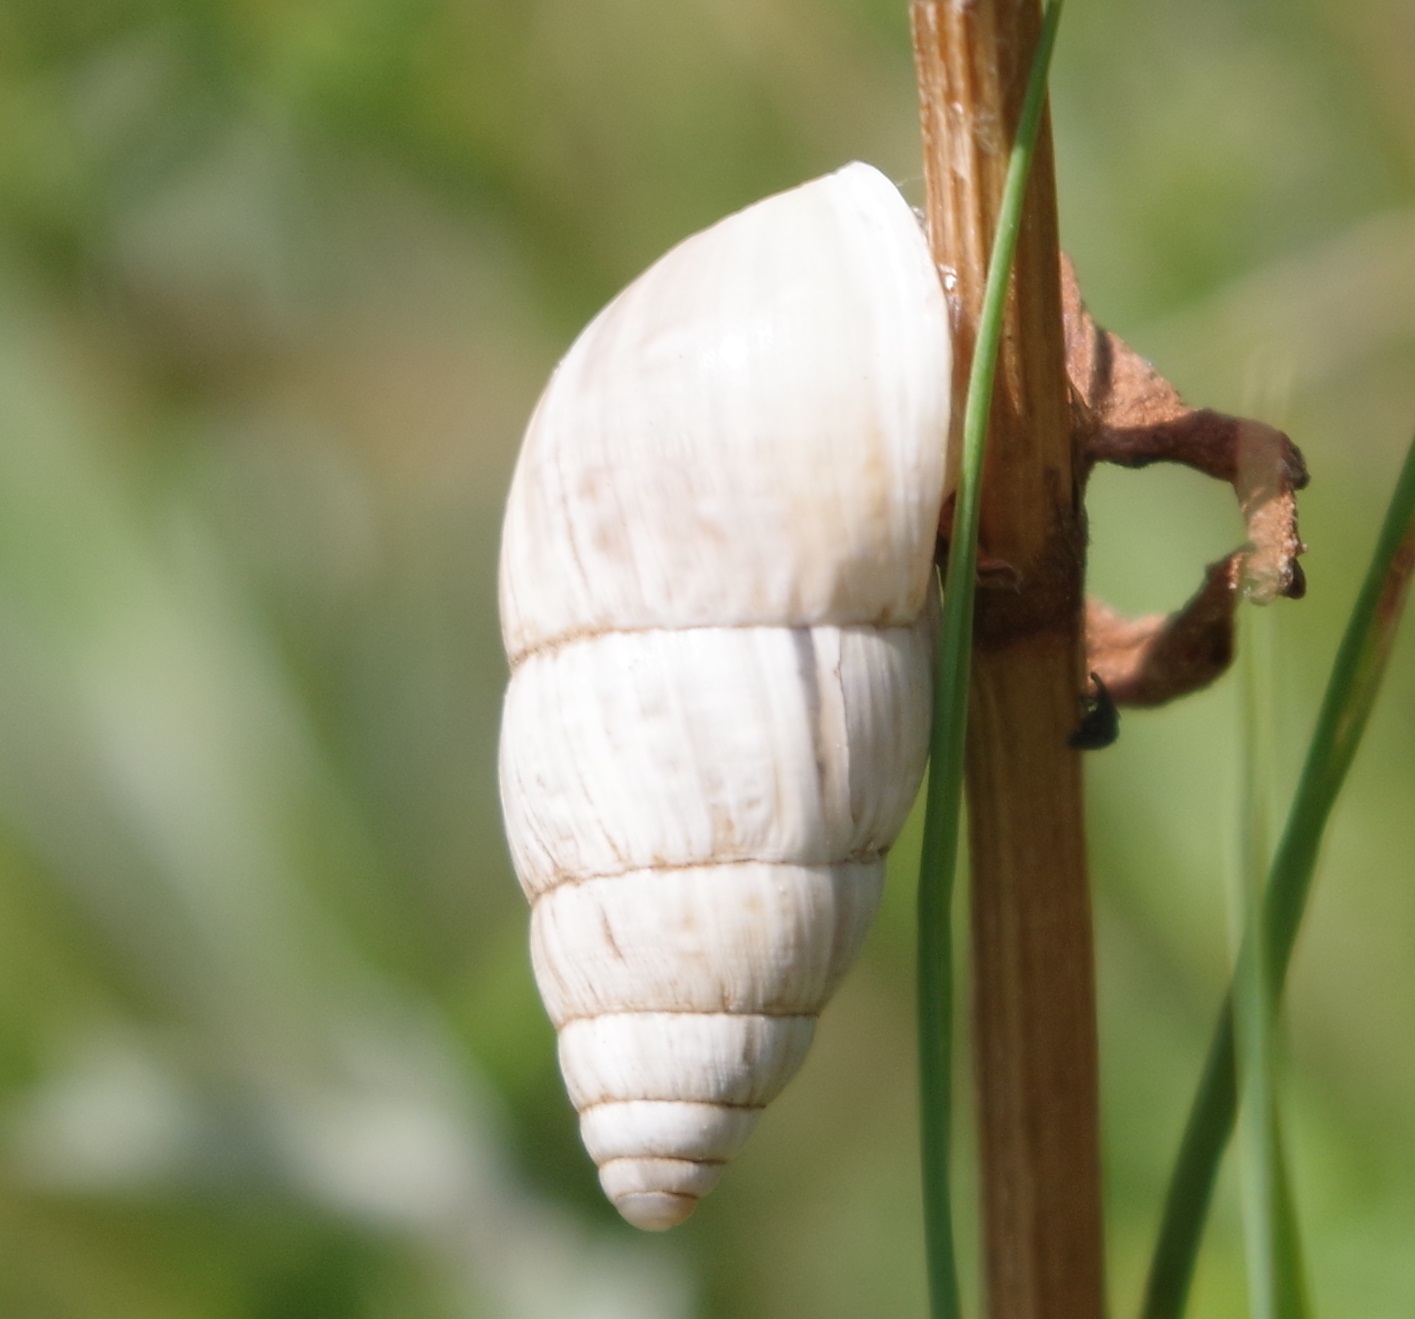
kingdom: Animalia
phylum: Mollusca
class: Gastropoda
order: Stylommatophora
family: Enidae
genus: Zebrina
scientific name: Zebrina detrita
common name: Large bulin
